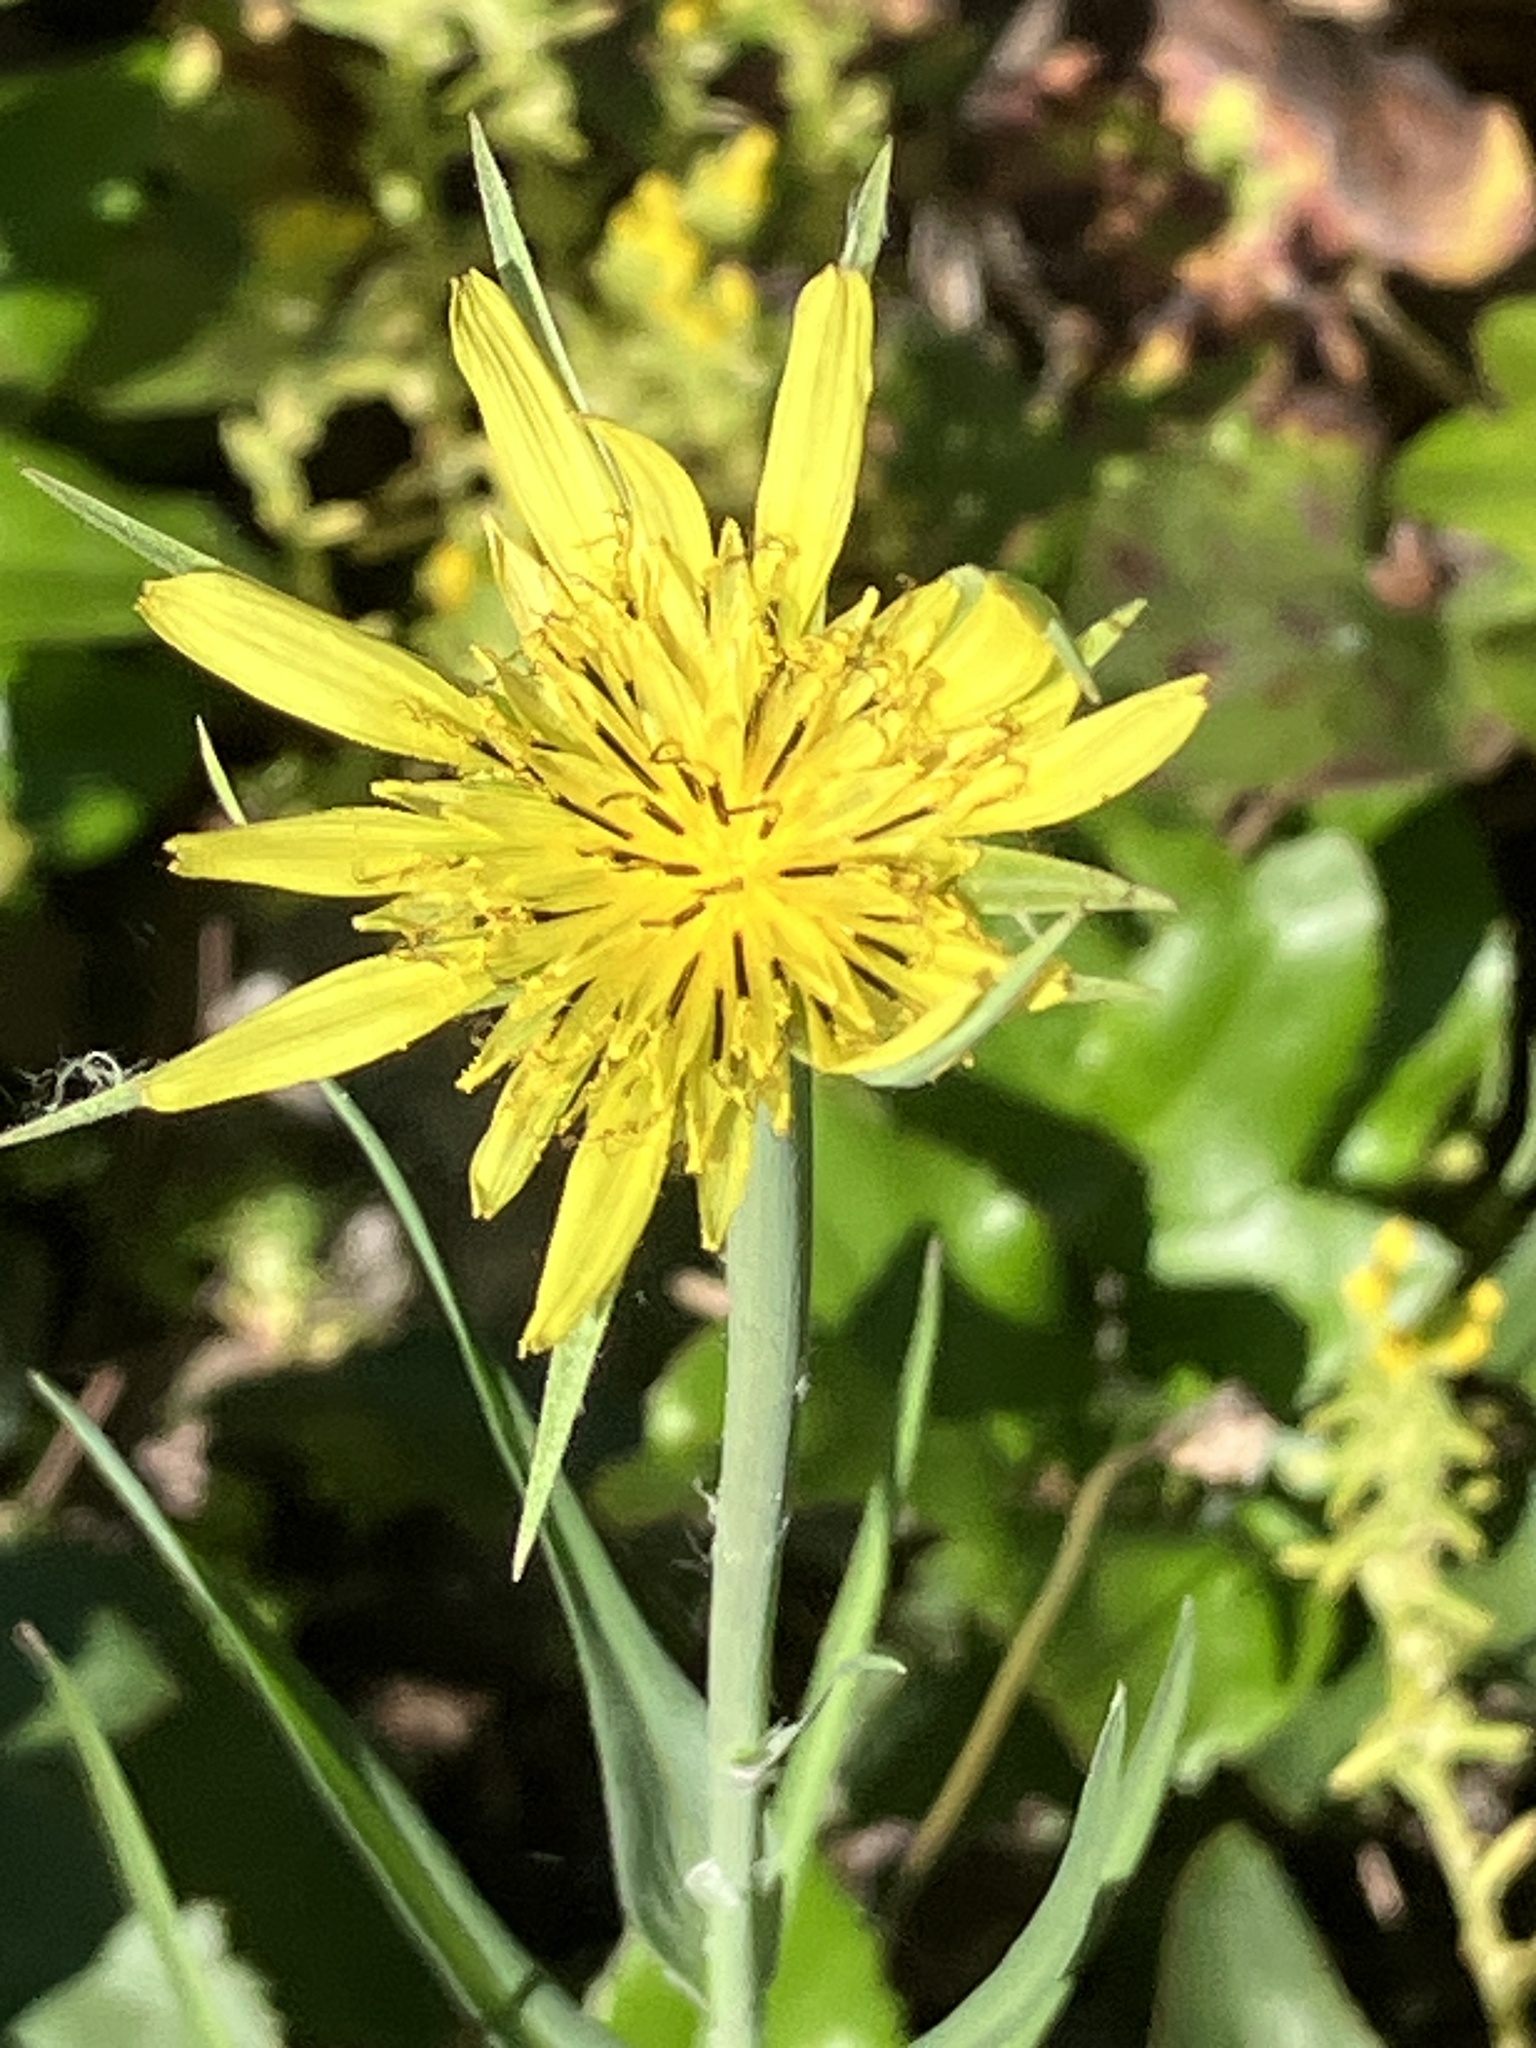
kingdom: Plantae
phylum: Tracheophyta
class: Magnoliopsida
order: Asterales
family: Asteraceae
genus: Tragopogon
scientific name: Tragopogon dubius
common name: Yellow salsify
